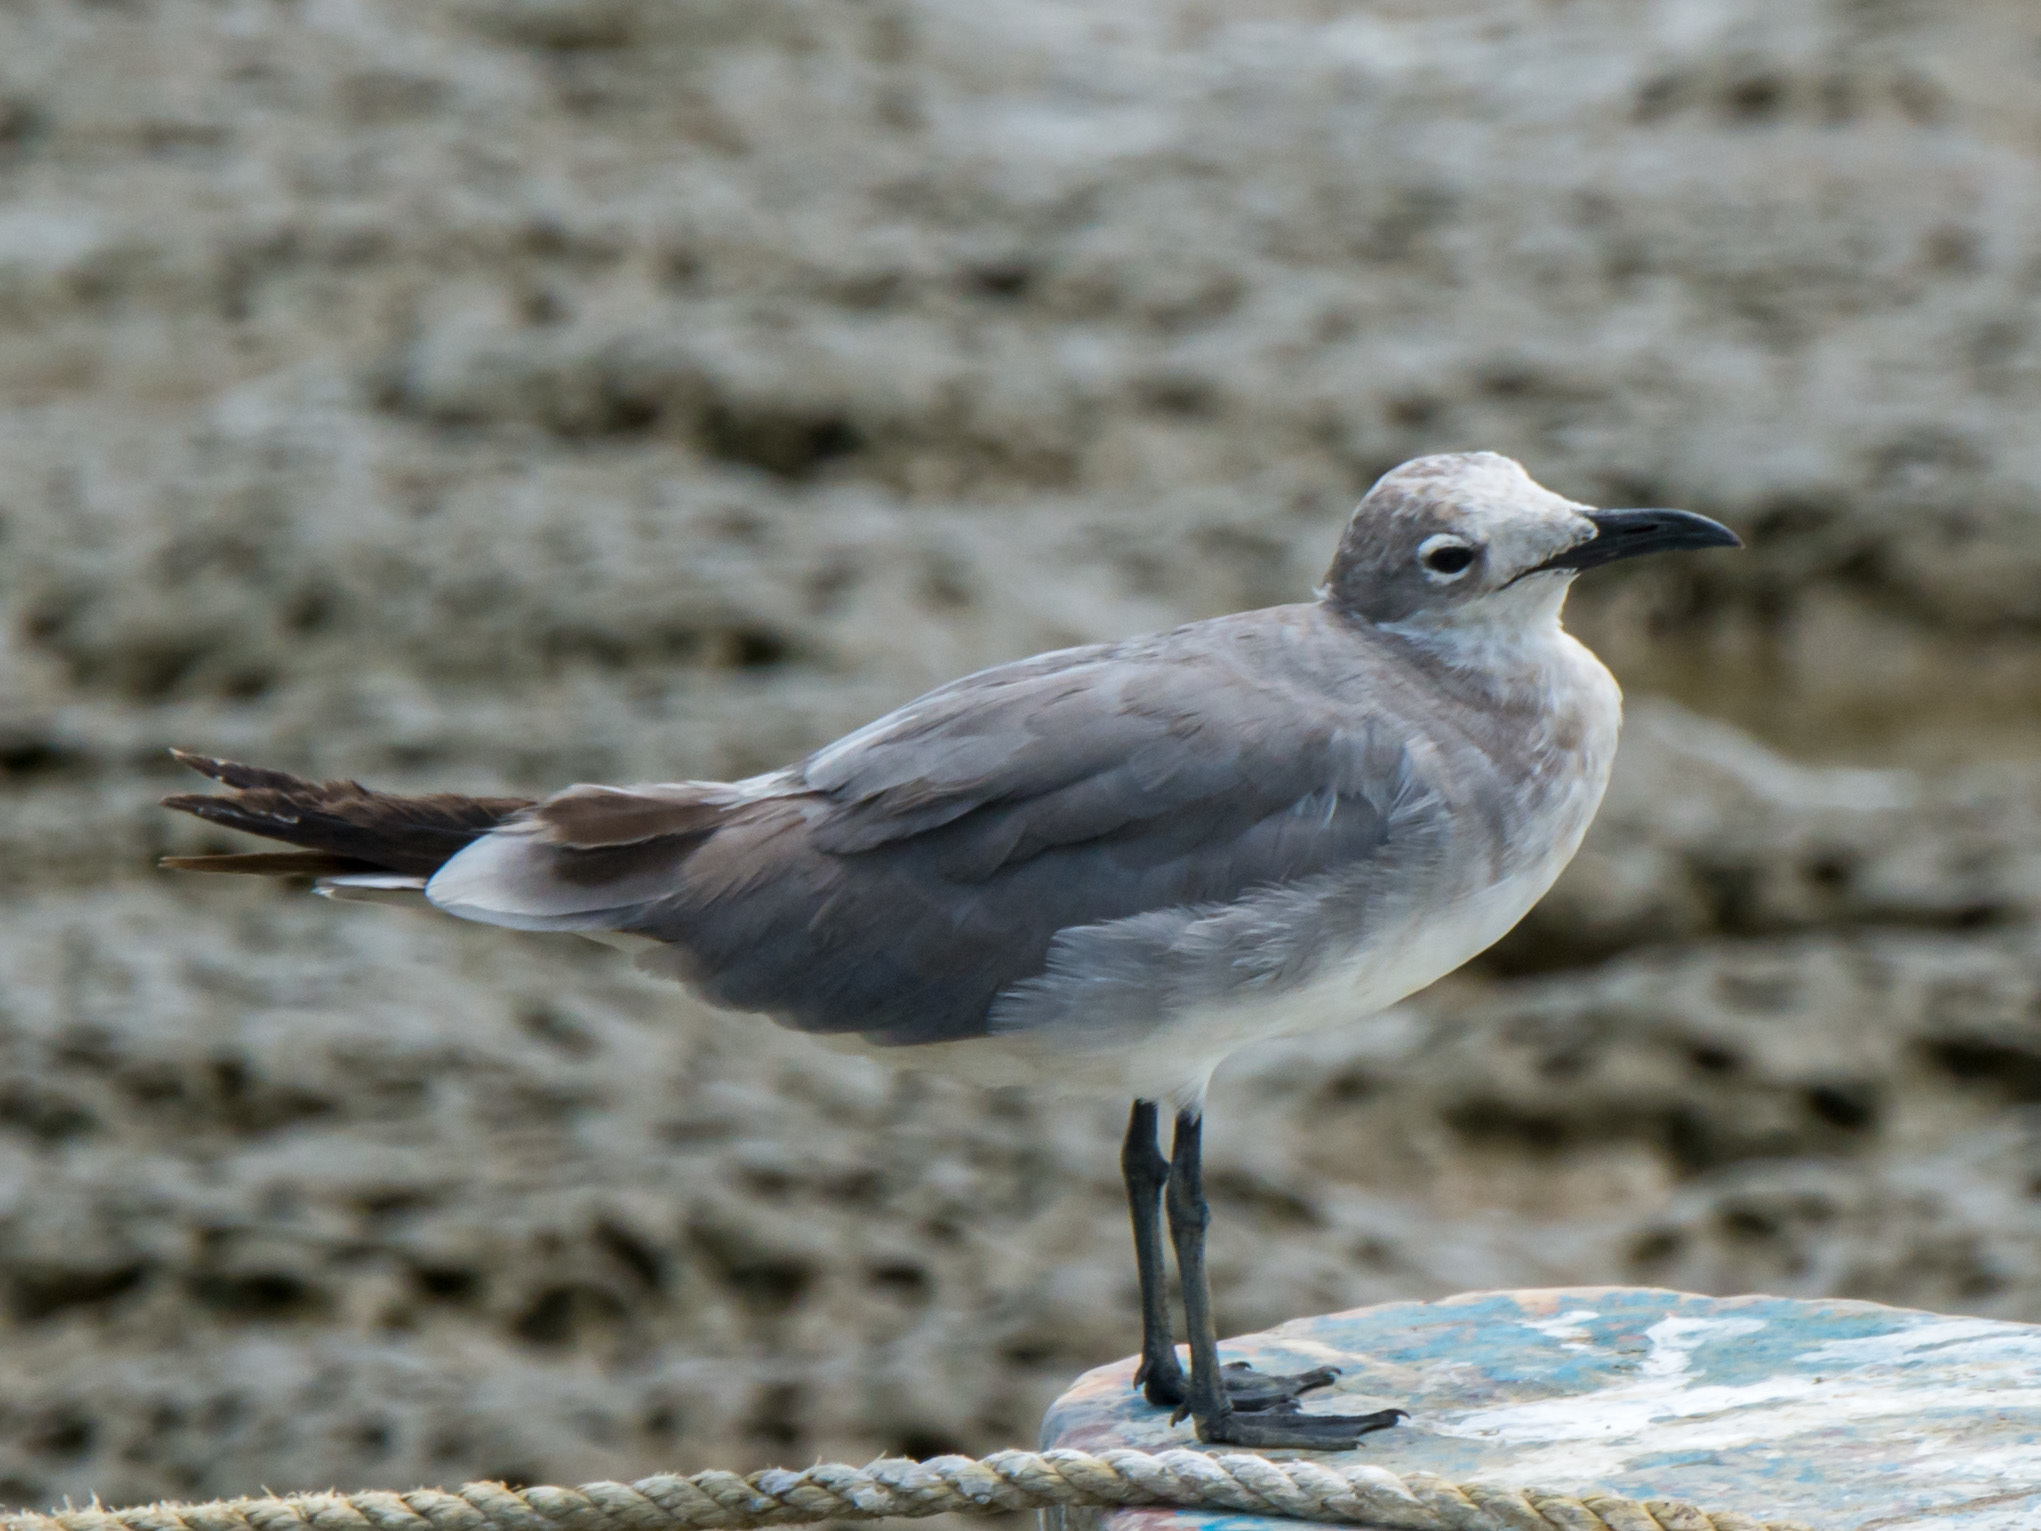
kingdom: Animalia
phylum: Chordata
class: Aves
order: Charadriiformes
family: Laridae
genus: Leucophaeus
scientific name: Leucophaeus atricilla
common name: Laughing gull
